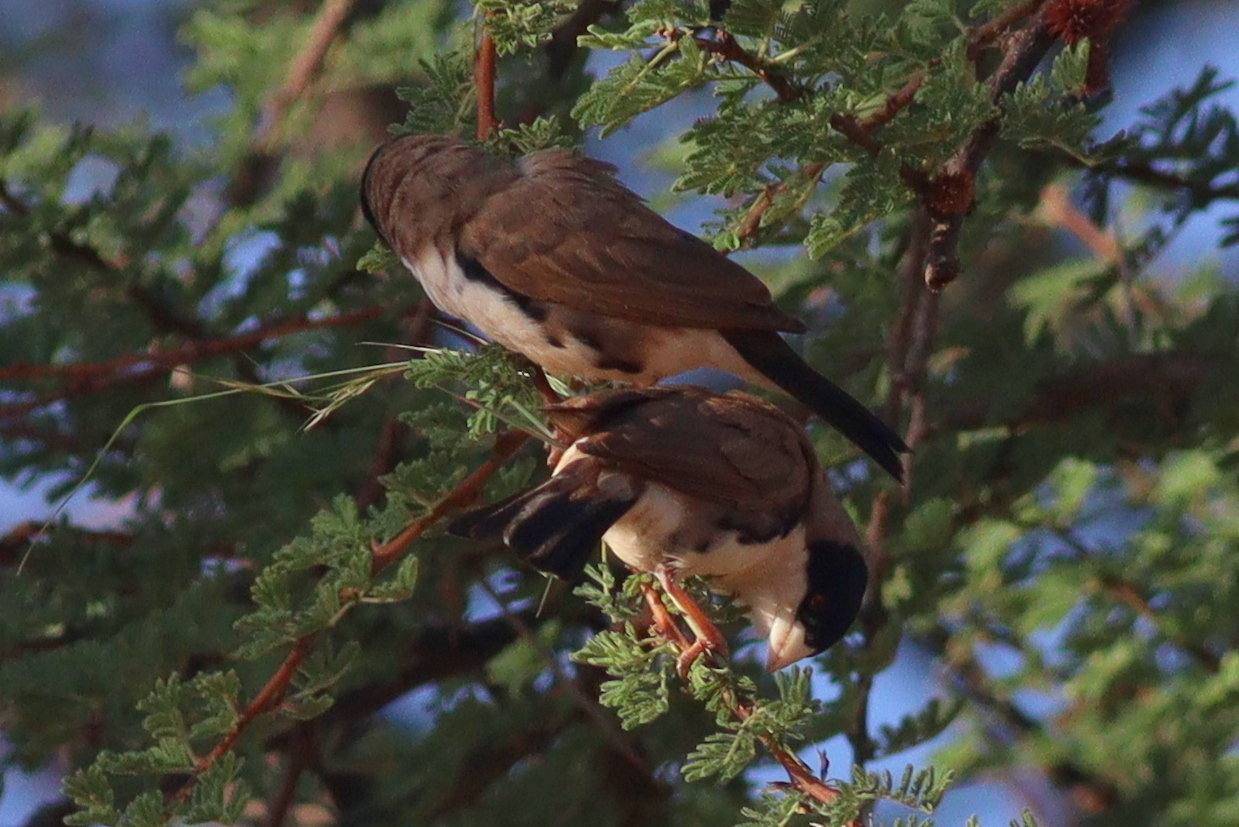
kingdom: Animalia
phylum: Chordata
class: Aves
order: Passeriformes
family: Passeridae
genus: Pseudonigrita
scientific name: Pseudonigrita cabanisi
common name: Black-capped social weaver
